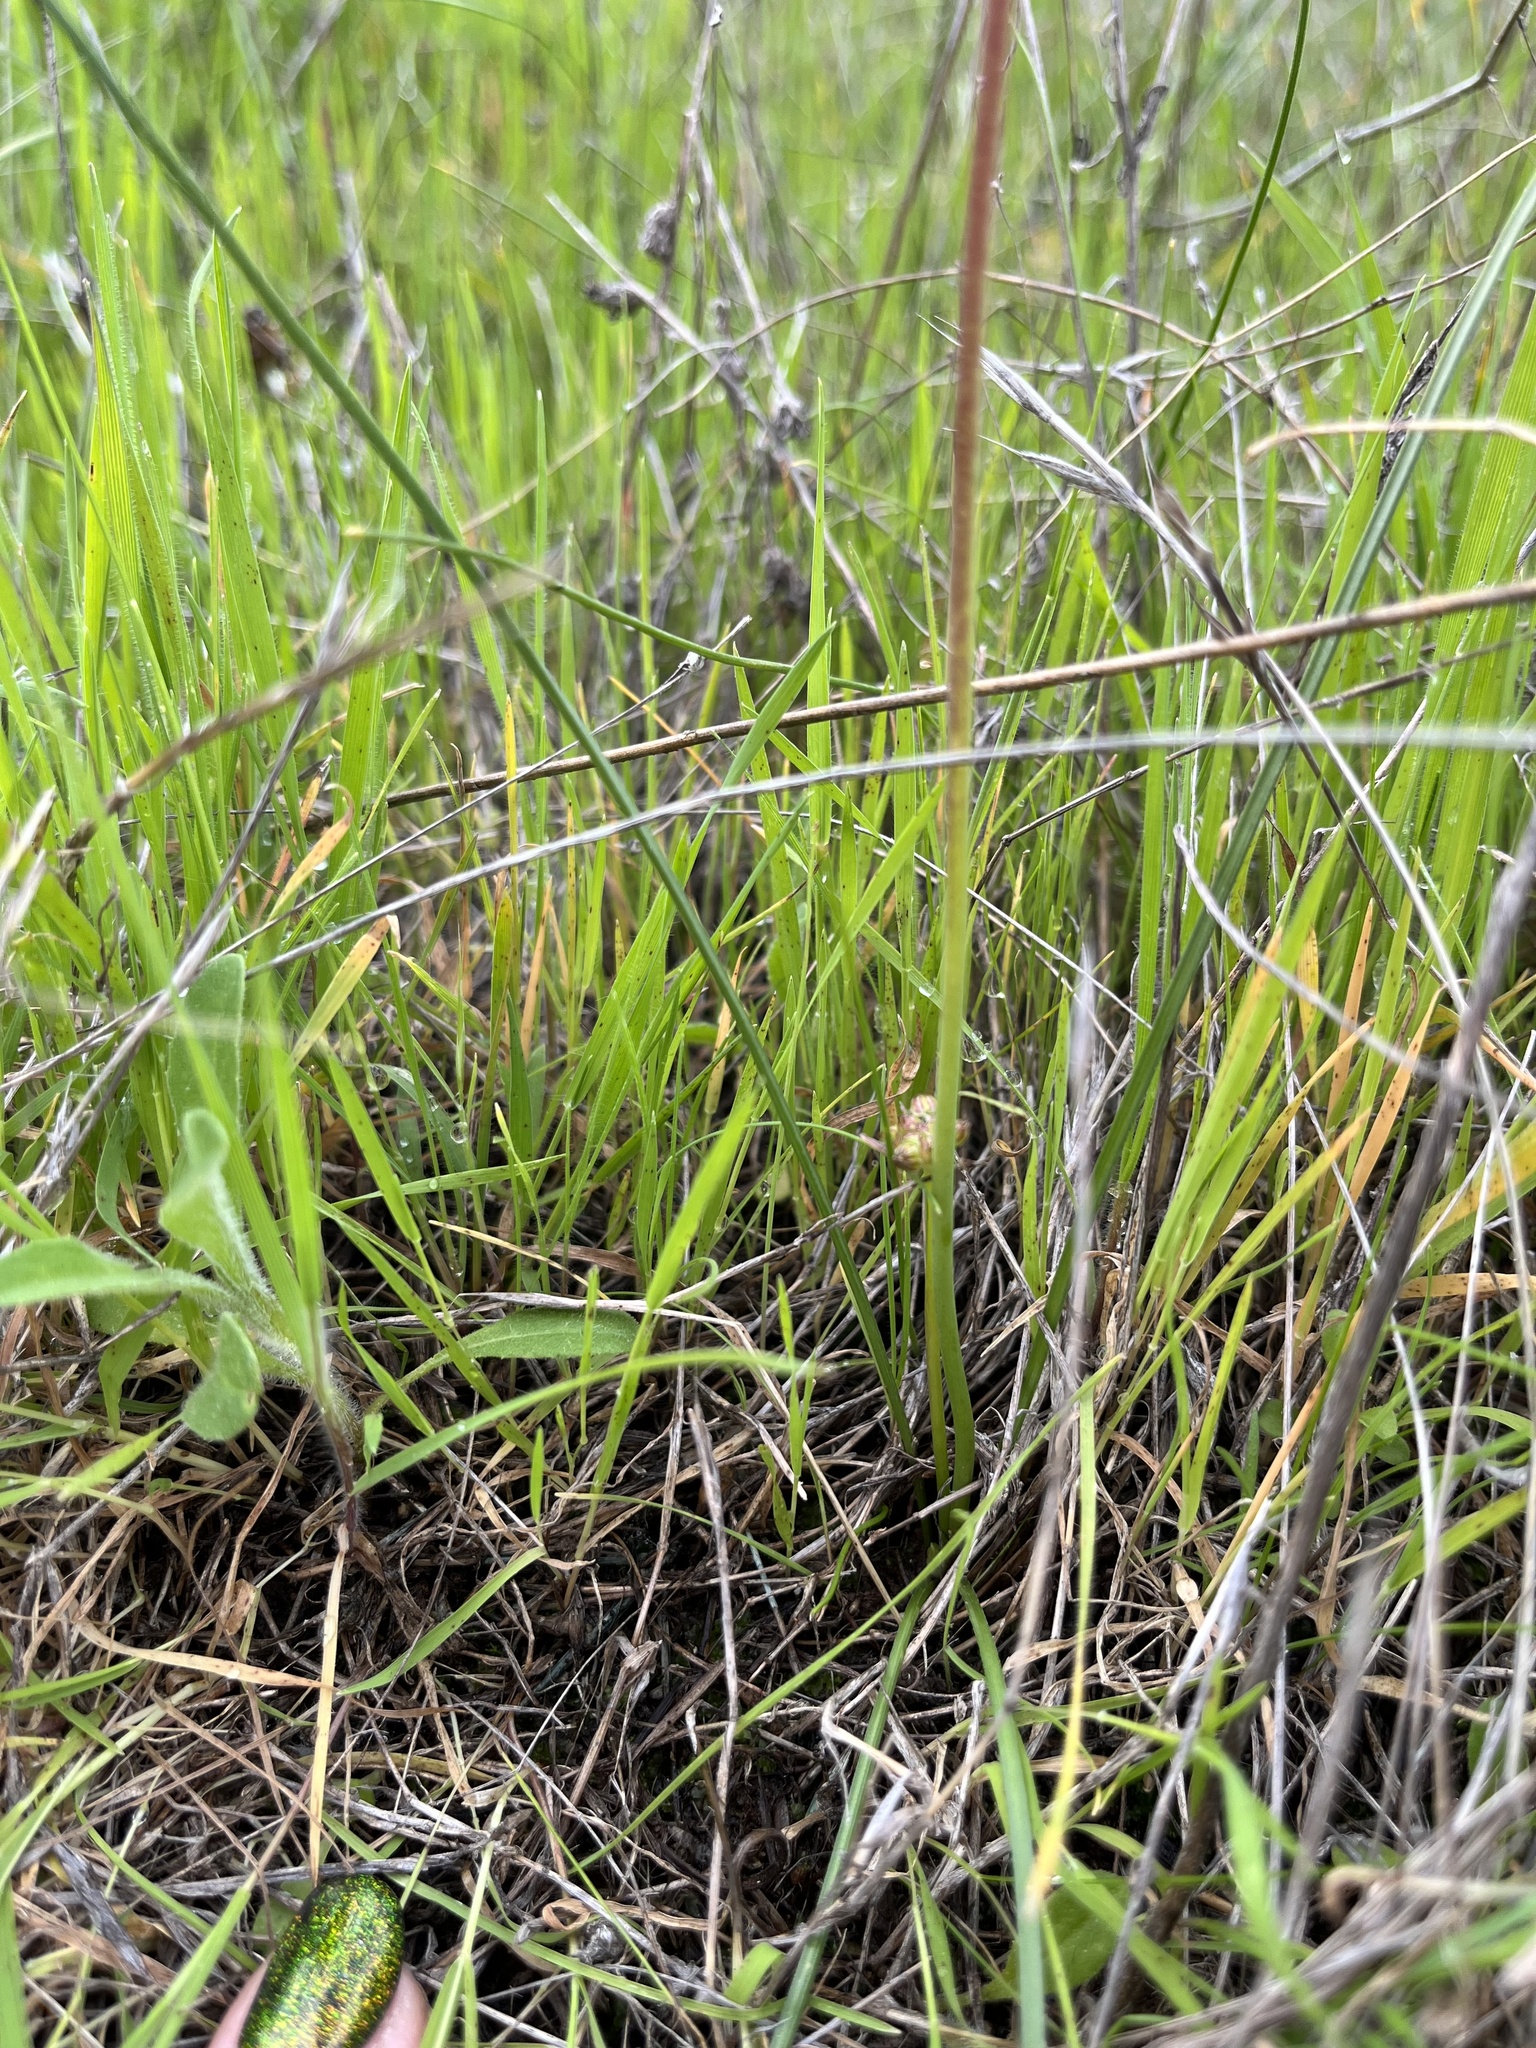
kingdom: Plantae
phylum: Tracheophyta
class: Liliopsida
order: Asparagales
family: Asparagaceae
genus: Muilla
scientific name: Muilla maritima
